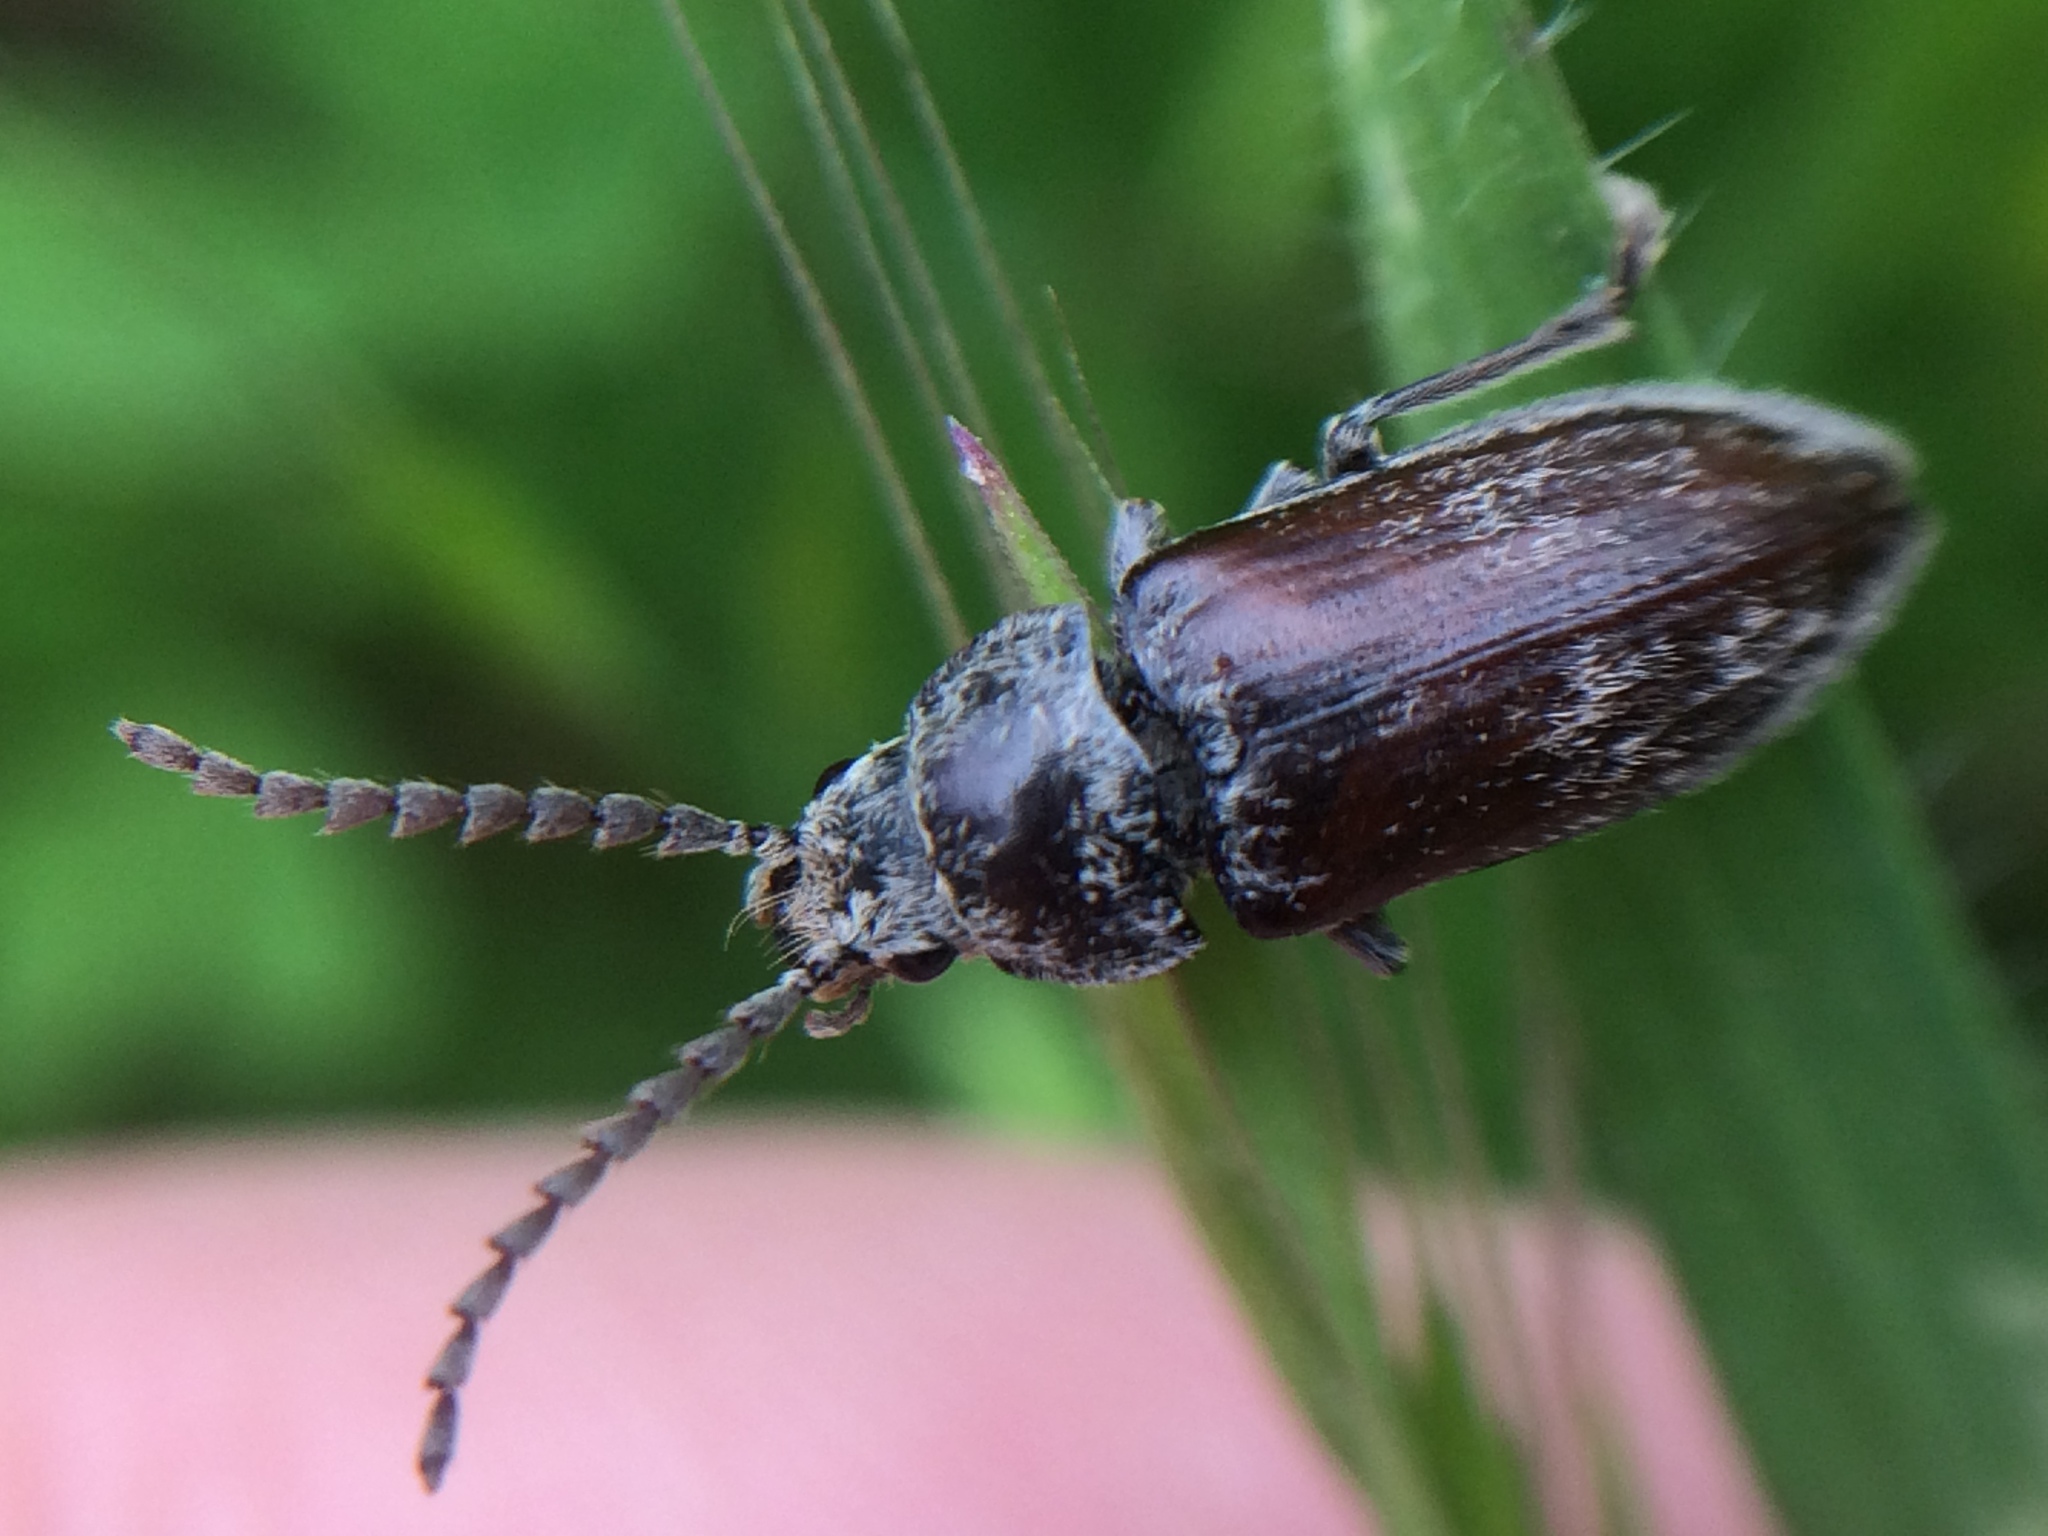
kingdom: Animalia
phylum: Arthropoda
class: Insecta
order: Coleoptera
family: Dascillidae
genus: Dascillus
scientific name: Dascillus davidsoni
